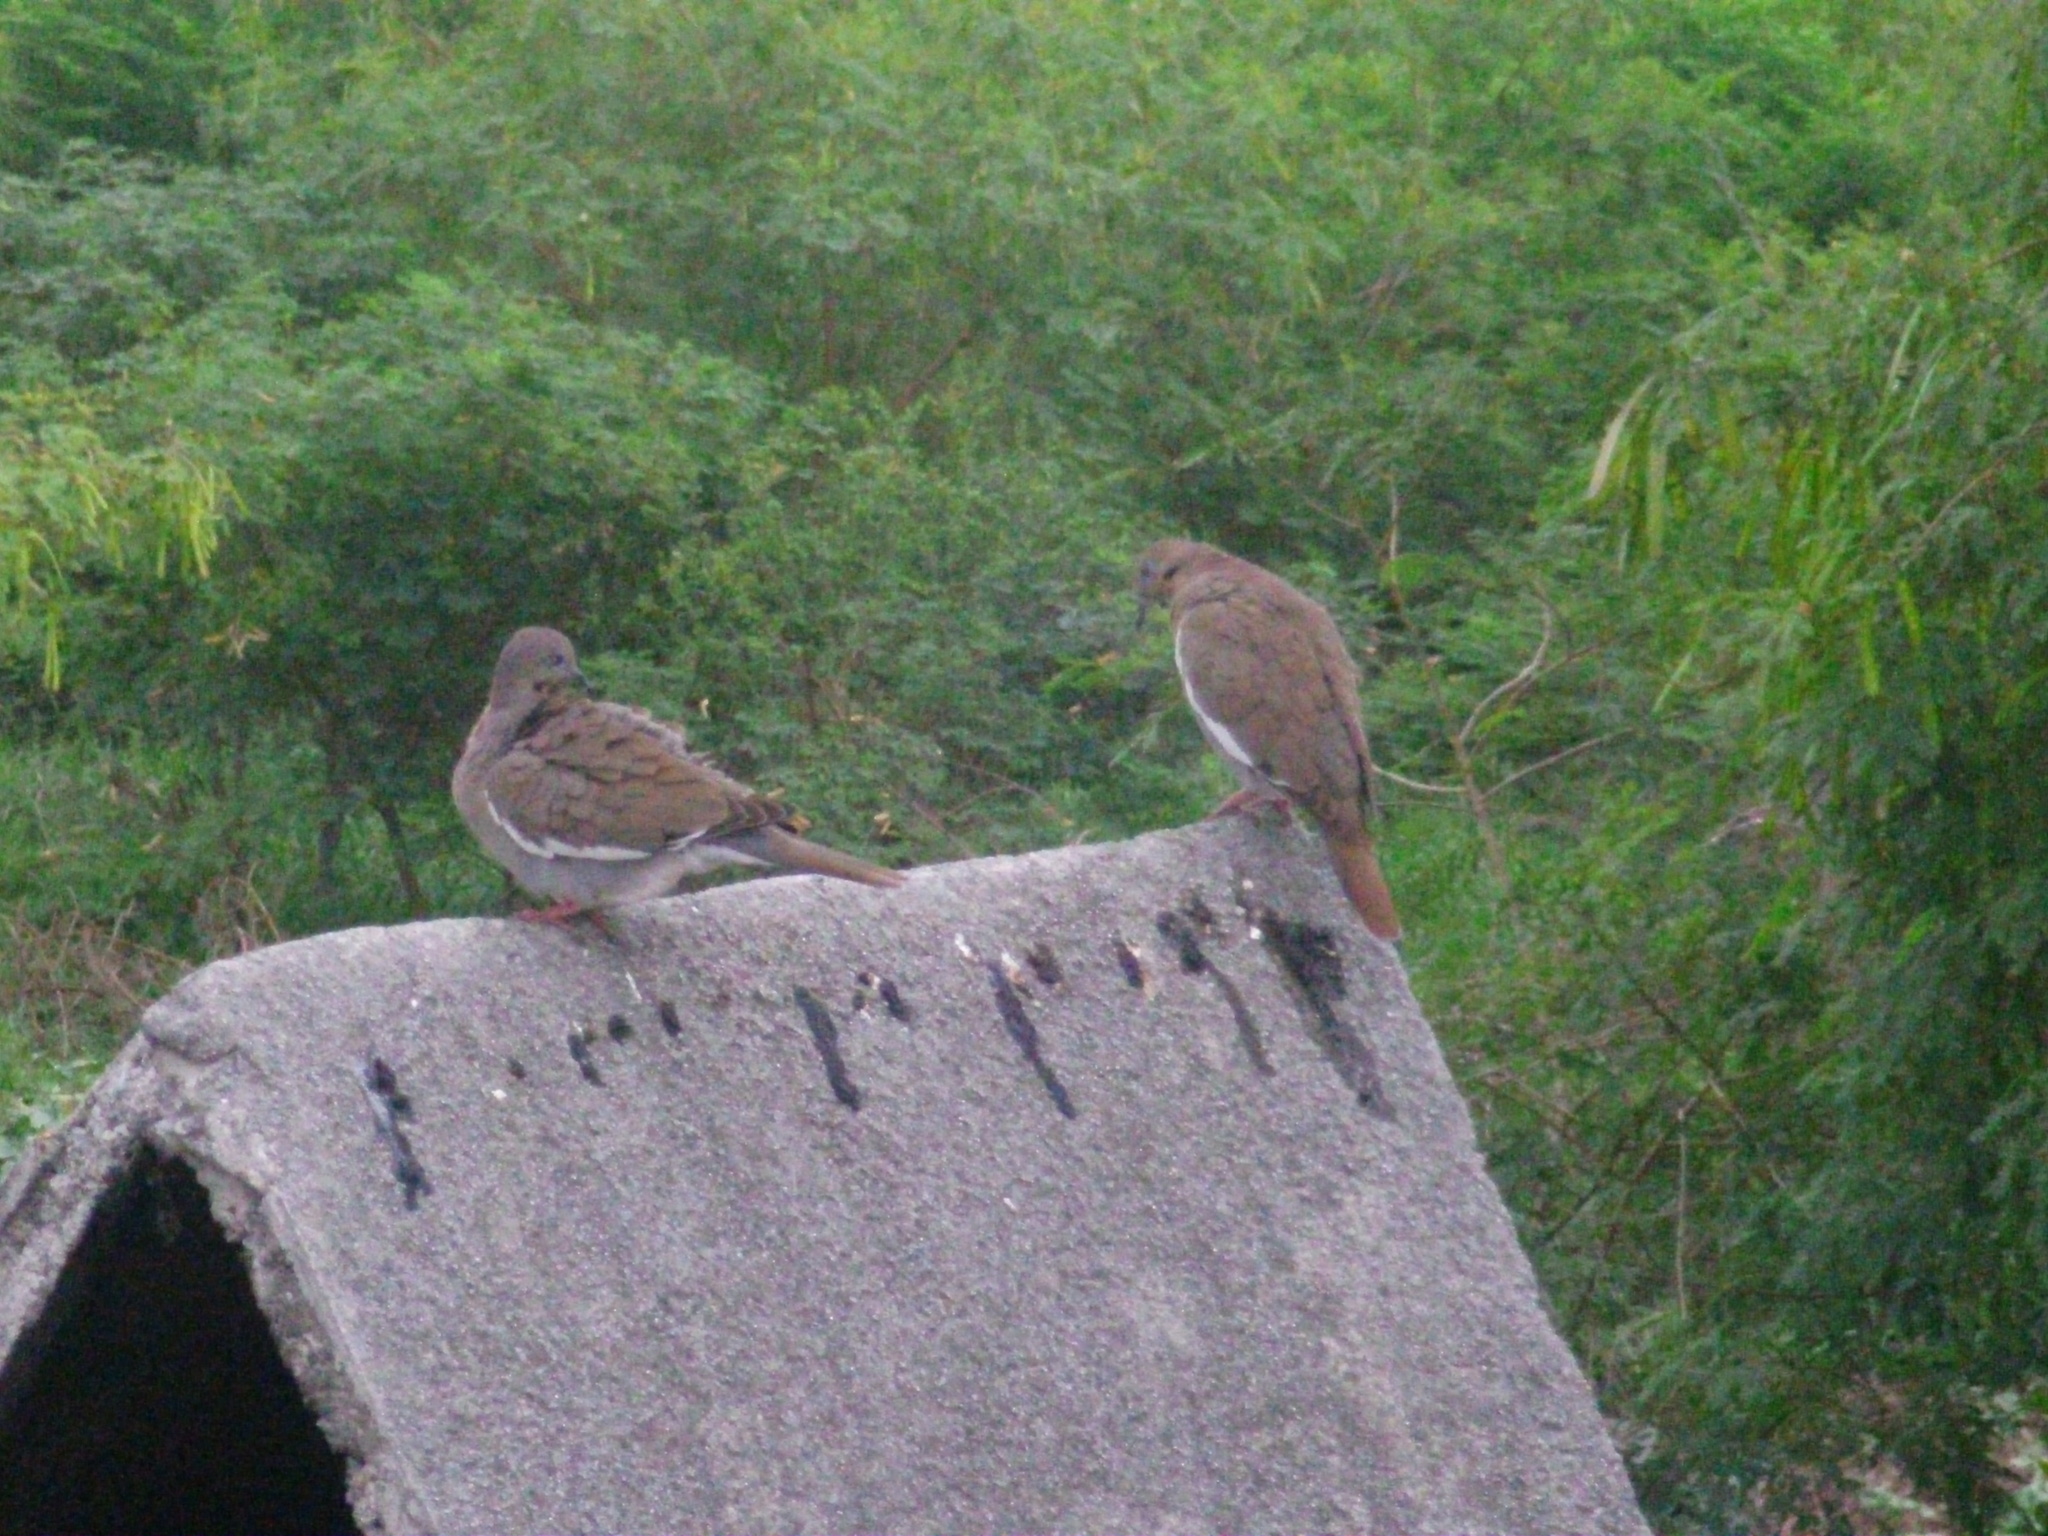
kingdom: Animalia
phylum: Chordata
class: Aves
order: Columbiformes
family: Columbidae
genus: Zenaida
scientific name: Zenaida asiatica
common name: White-winged dove
